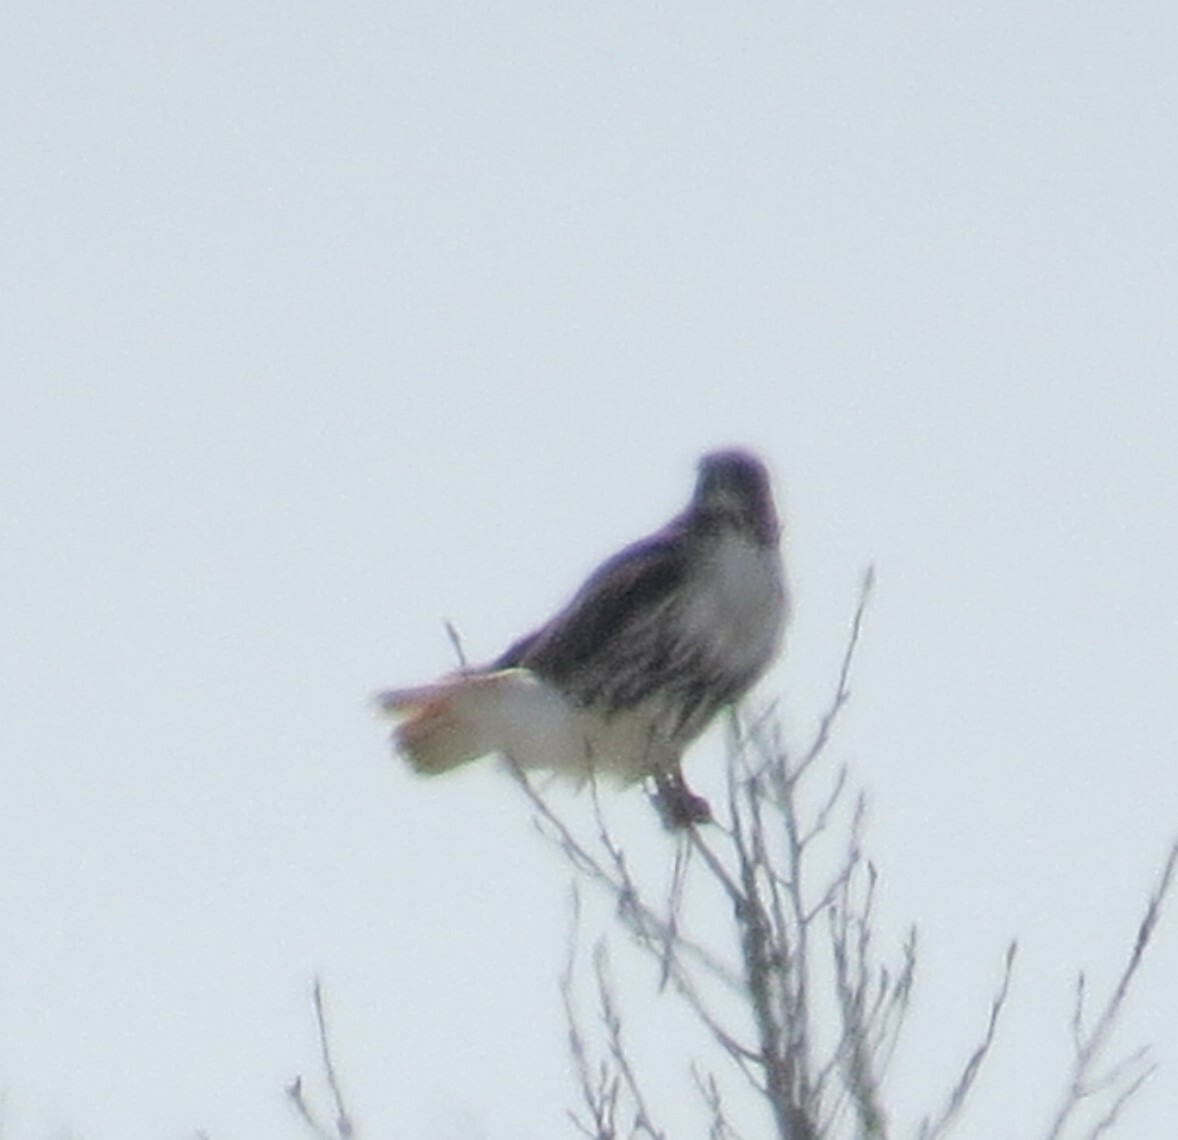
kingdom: Animalia
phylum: Chordata
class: Aves
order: Accipitriformes
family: Accipitridae
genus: Buteo
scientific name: Buteo jamaicensis
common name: Red-tailed hawk
